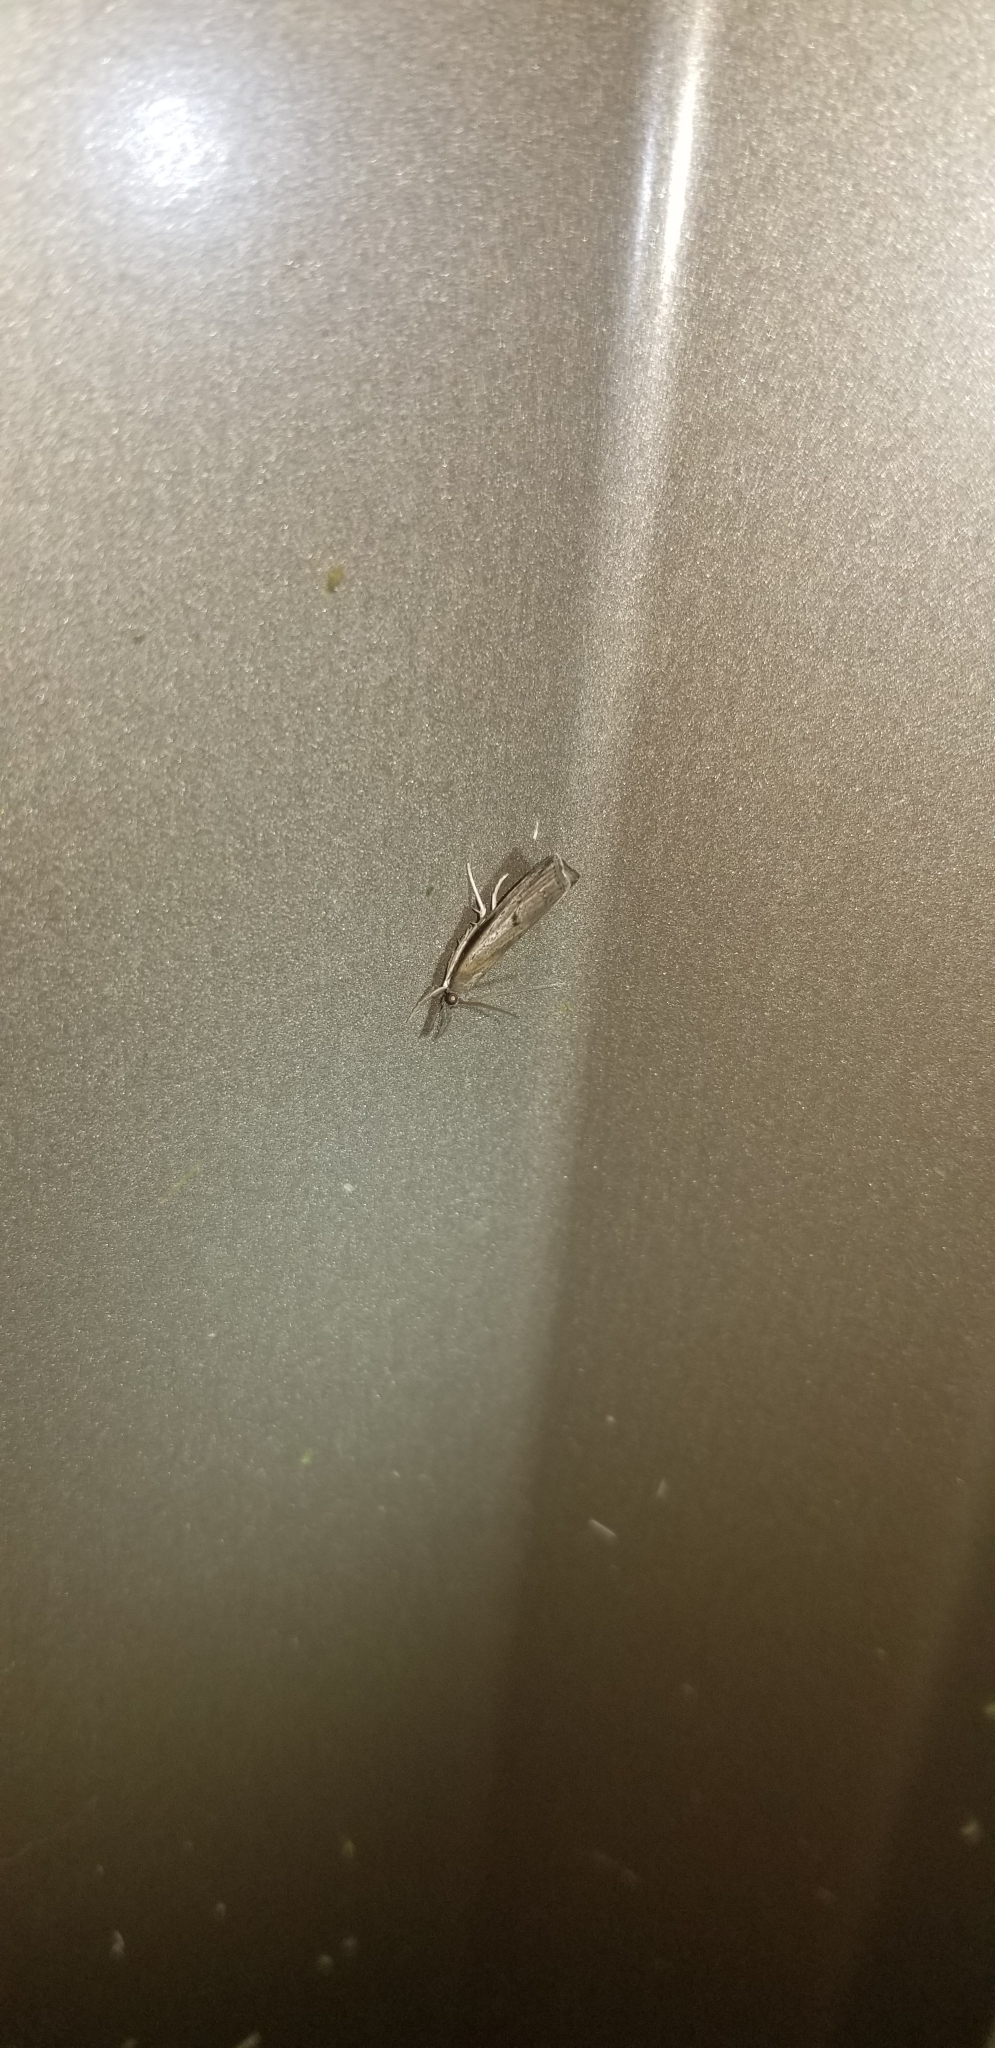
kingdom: Animalia
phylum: Arthropoda
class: Insecta
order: Lepidoptera
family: Crambidae
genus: Fissicrambus
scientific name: Fissicrambus mutabilis
